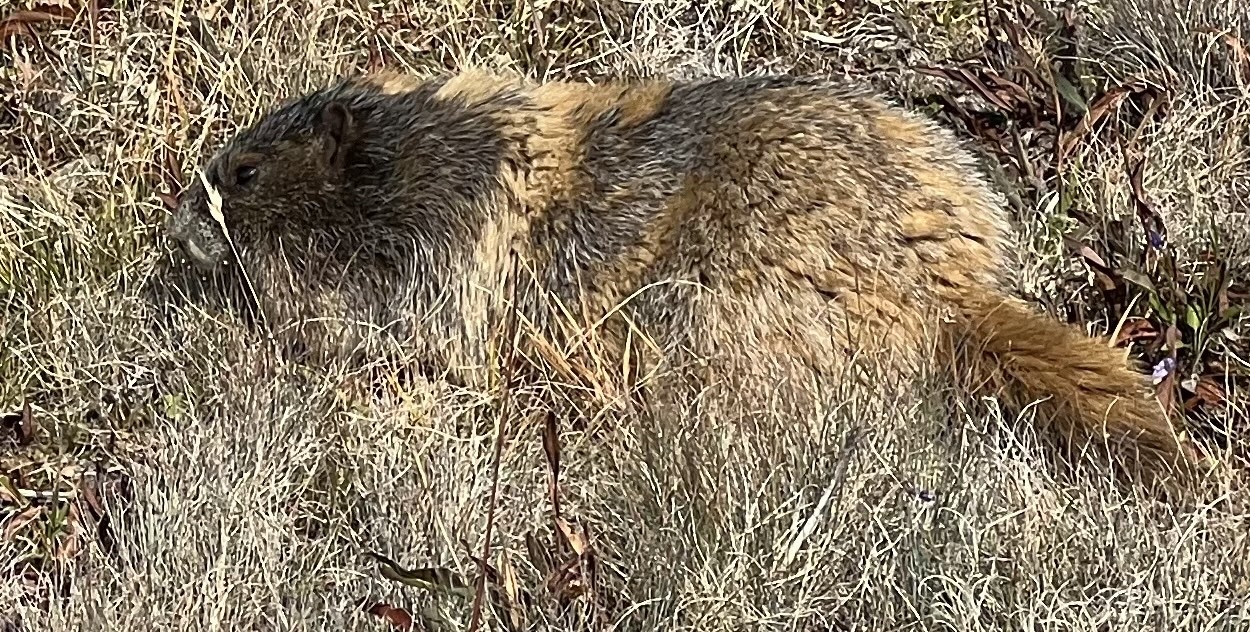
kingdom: Animalia
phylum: Chordata
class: Mammalia
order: Rodentia
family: Sciuridae
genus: Marmota
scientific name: Marmota olympus
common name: Olympic marmot
